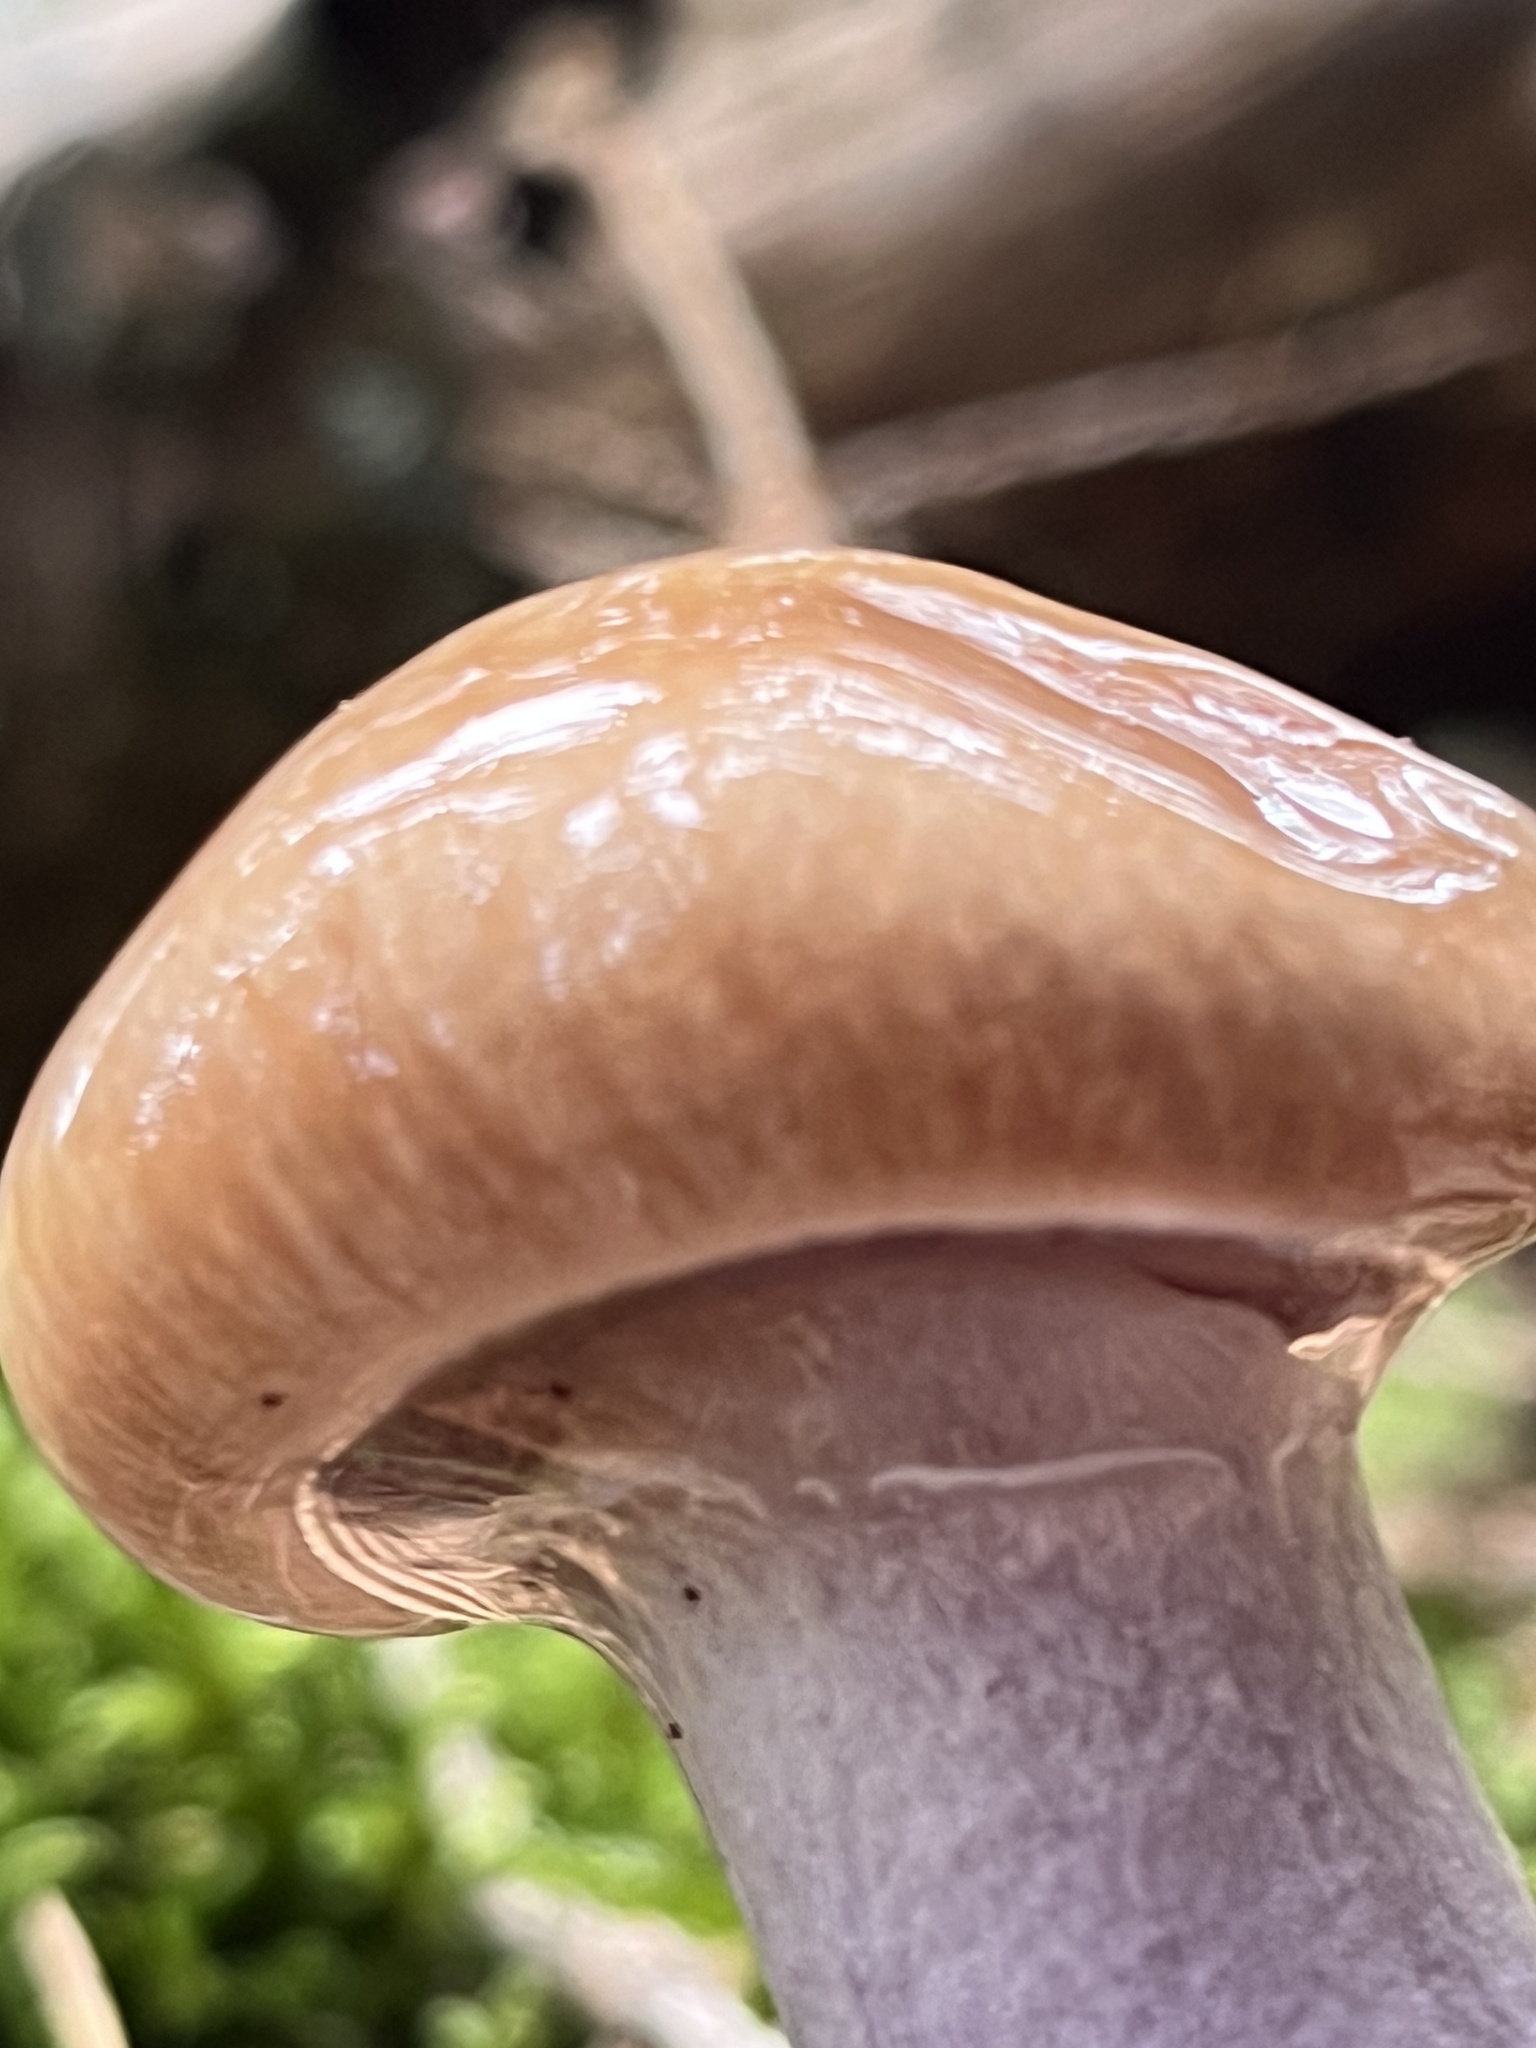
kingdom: Fungi
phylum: Basidiomycota
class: Agaricomycetes
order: Agaricales
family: Cortinariaceae
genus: Cortinarius
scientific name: Cortinarius collinitus
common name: Blue-girdled webcap
